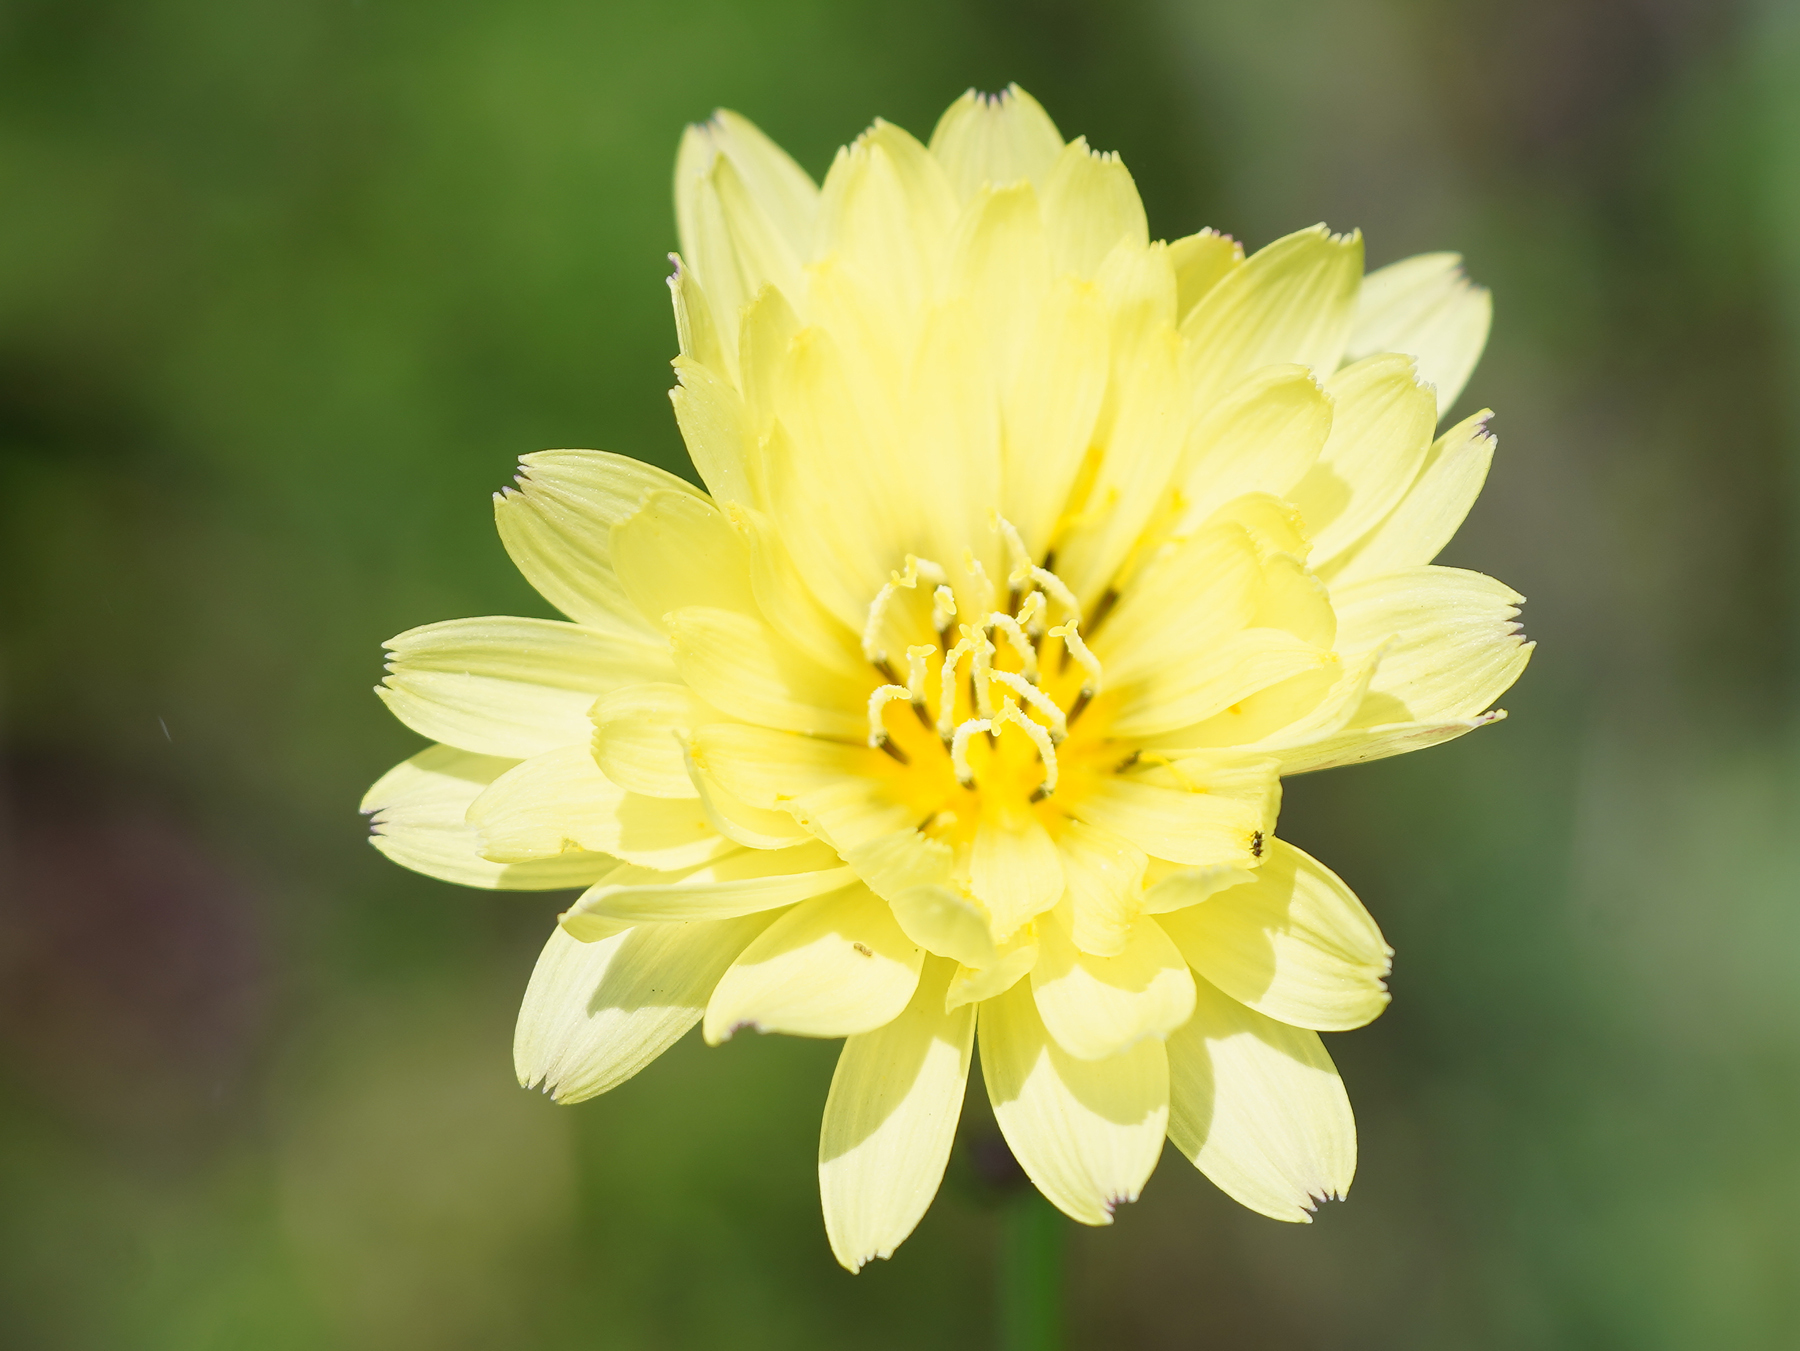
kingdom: Plantae
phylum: Tracheophyta
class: Magnoliopsida
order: Asterales
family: Asteraceae
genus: Pyrrhopappus
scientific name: Pyrrhopappus pauciflorus
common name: Texas false dandelion
